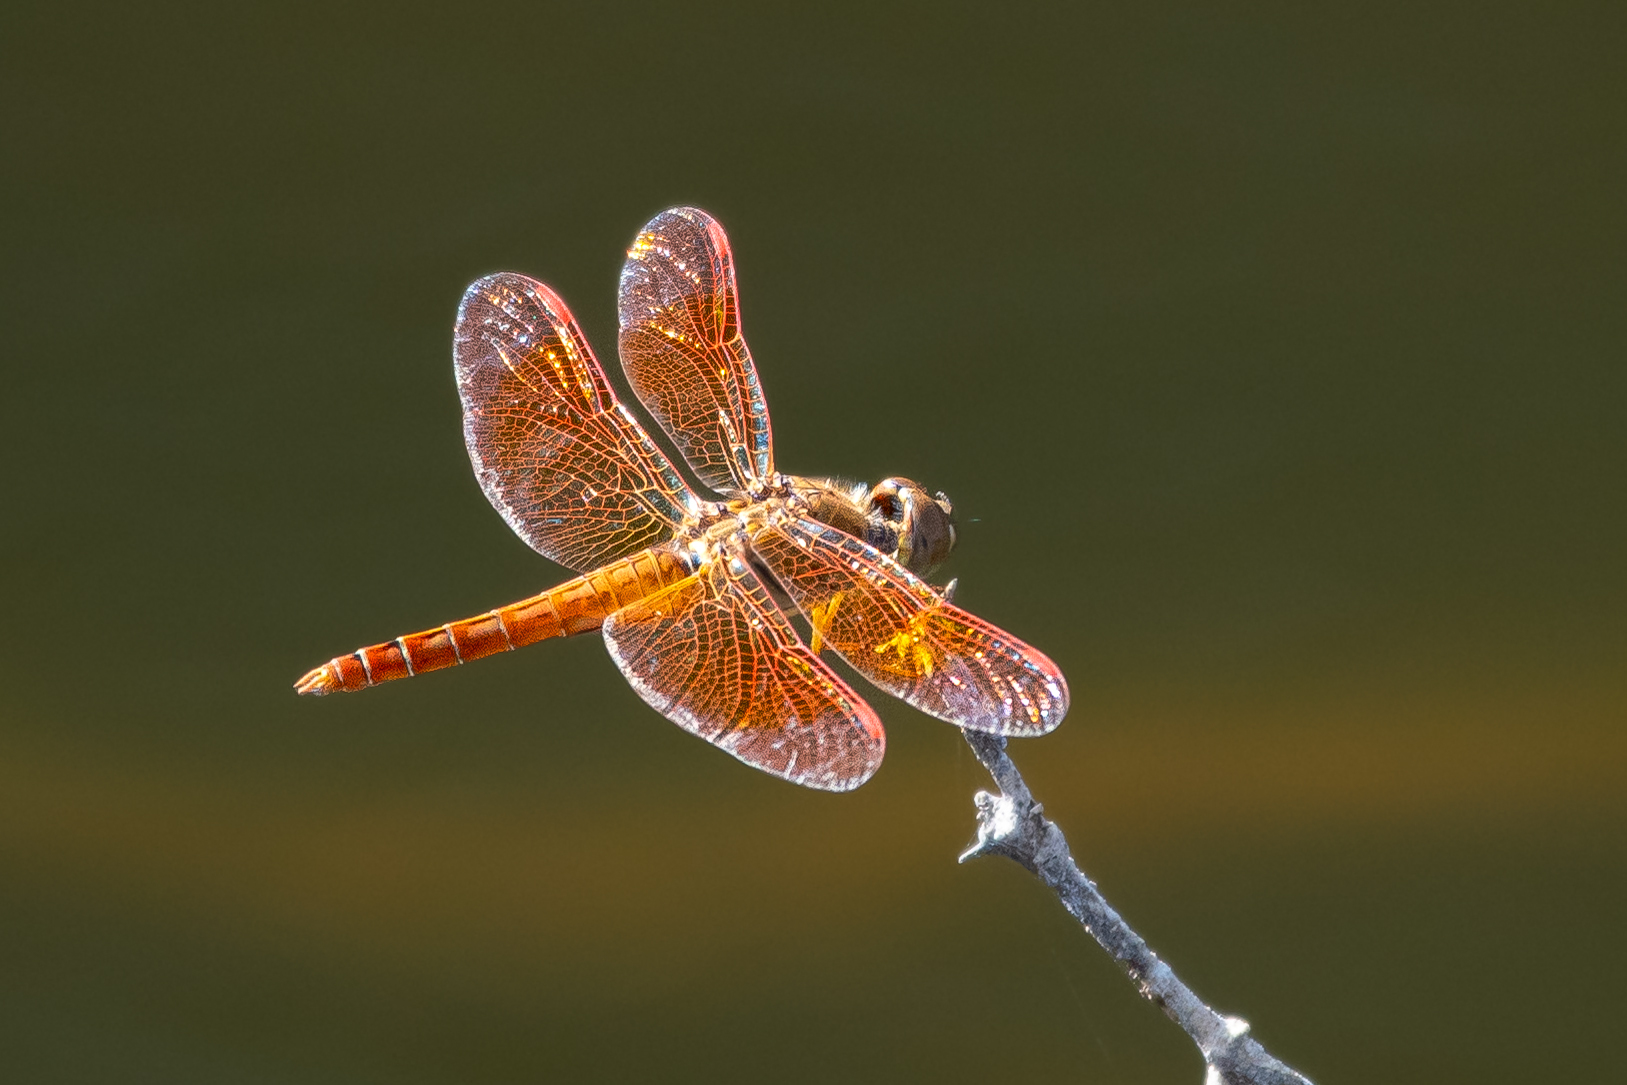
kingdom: Animalia
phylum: Arthropoda
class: Insecta
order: Odonata
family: Libellulidae
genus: Brachythemis
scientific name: Brachythemis contaminata
